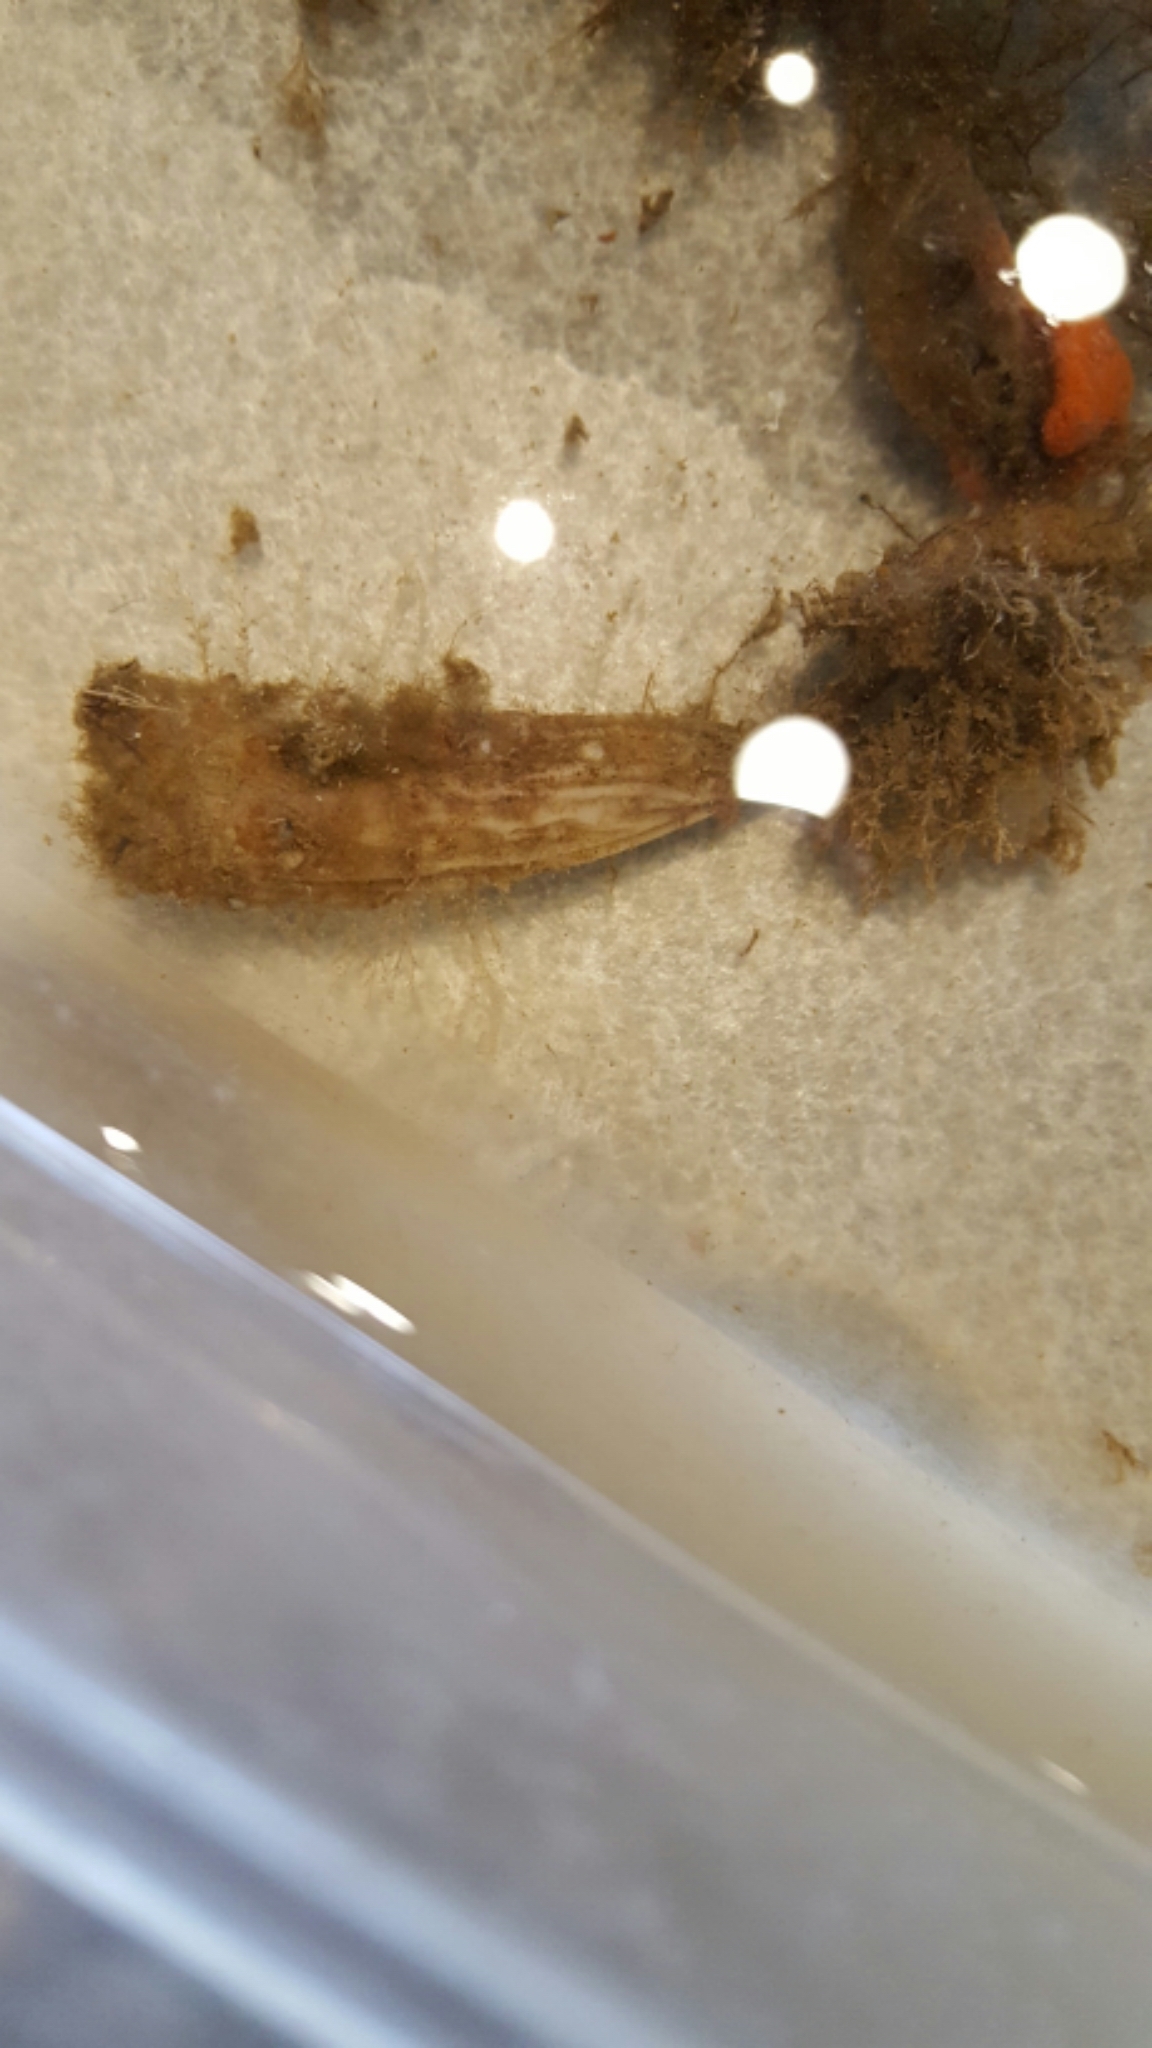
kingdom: Animalia
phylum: Chordata
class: Ascidiacea
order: Stolidobranchia
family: Styelidae
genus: Styela
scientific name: Styela clava
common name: Leathery sea squirt
